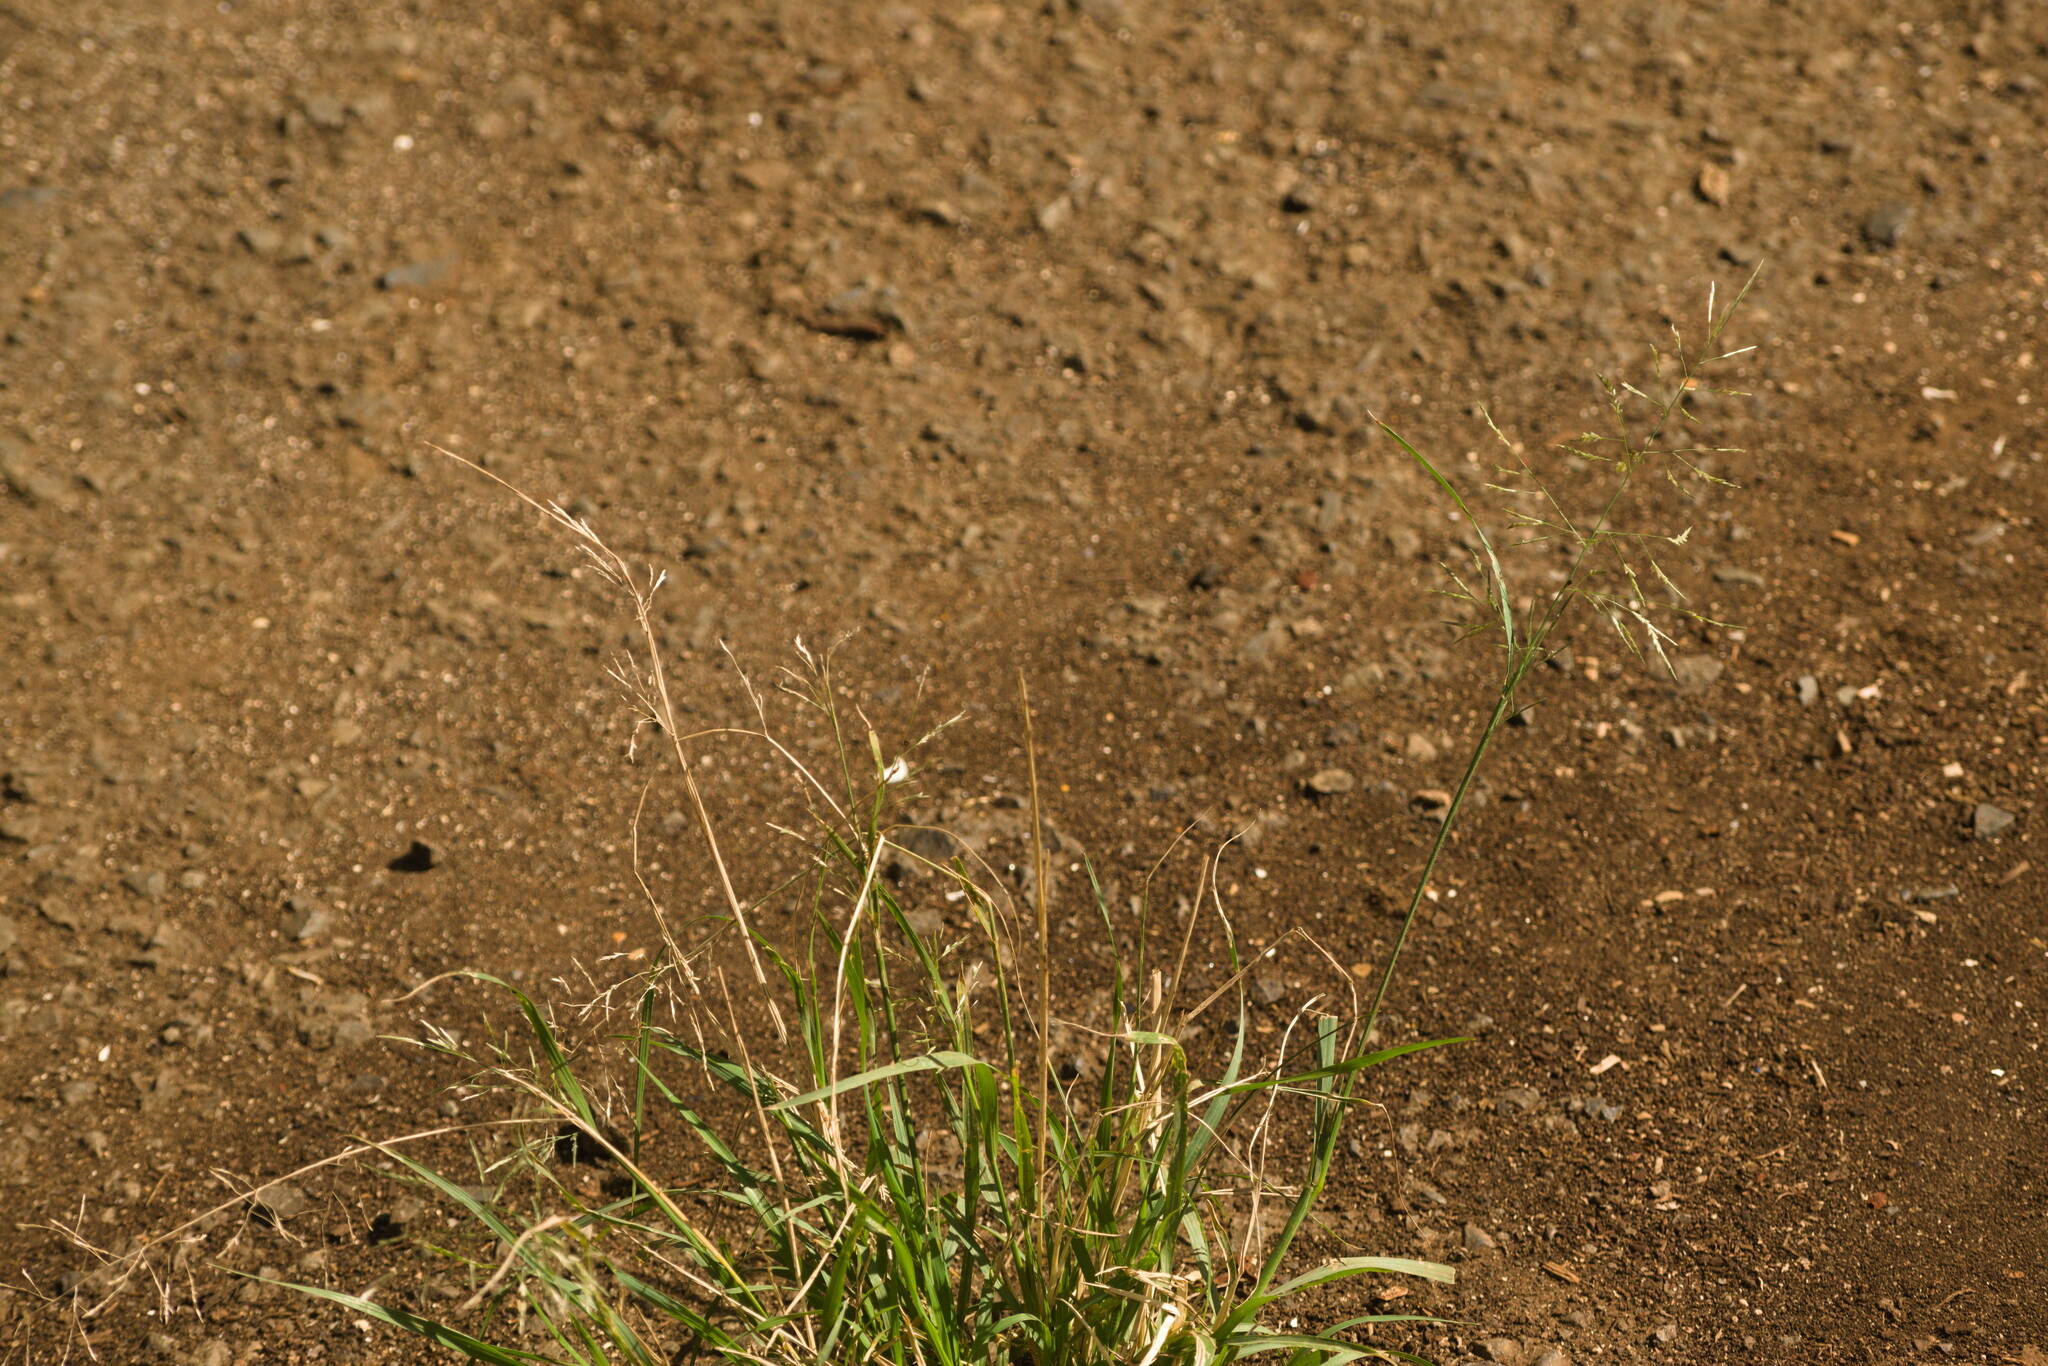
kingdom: Plantae
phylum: Tracheophyta
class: Liliopsida
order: Poales
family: Poaceae
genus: Eragrostis
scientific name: Eragrostis tenuifolia
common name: Elastic grass
